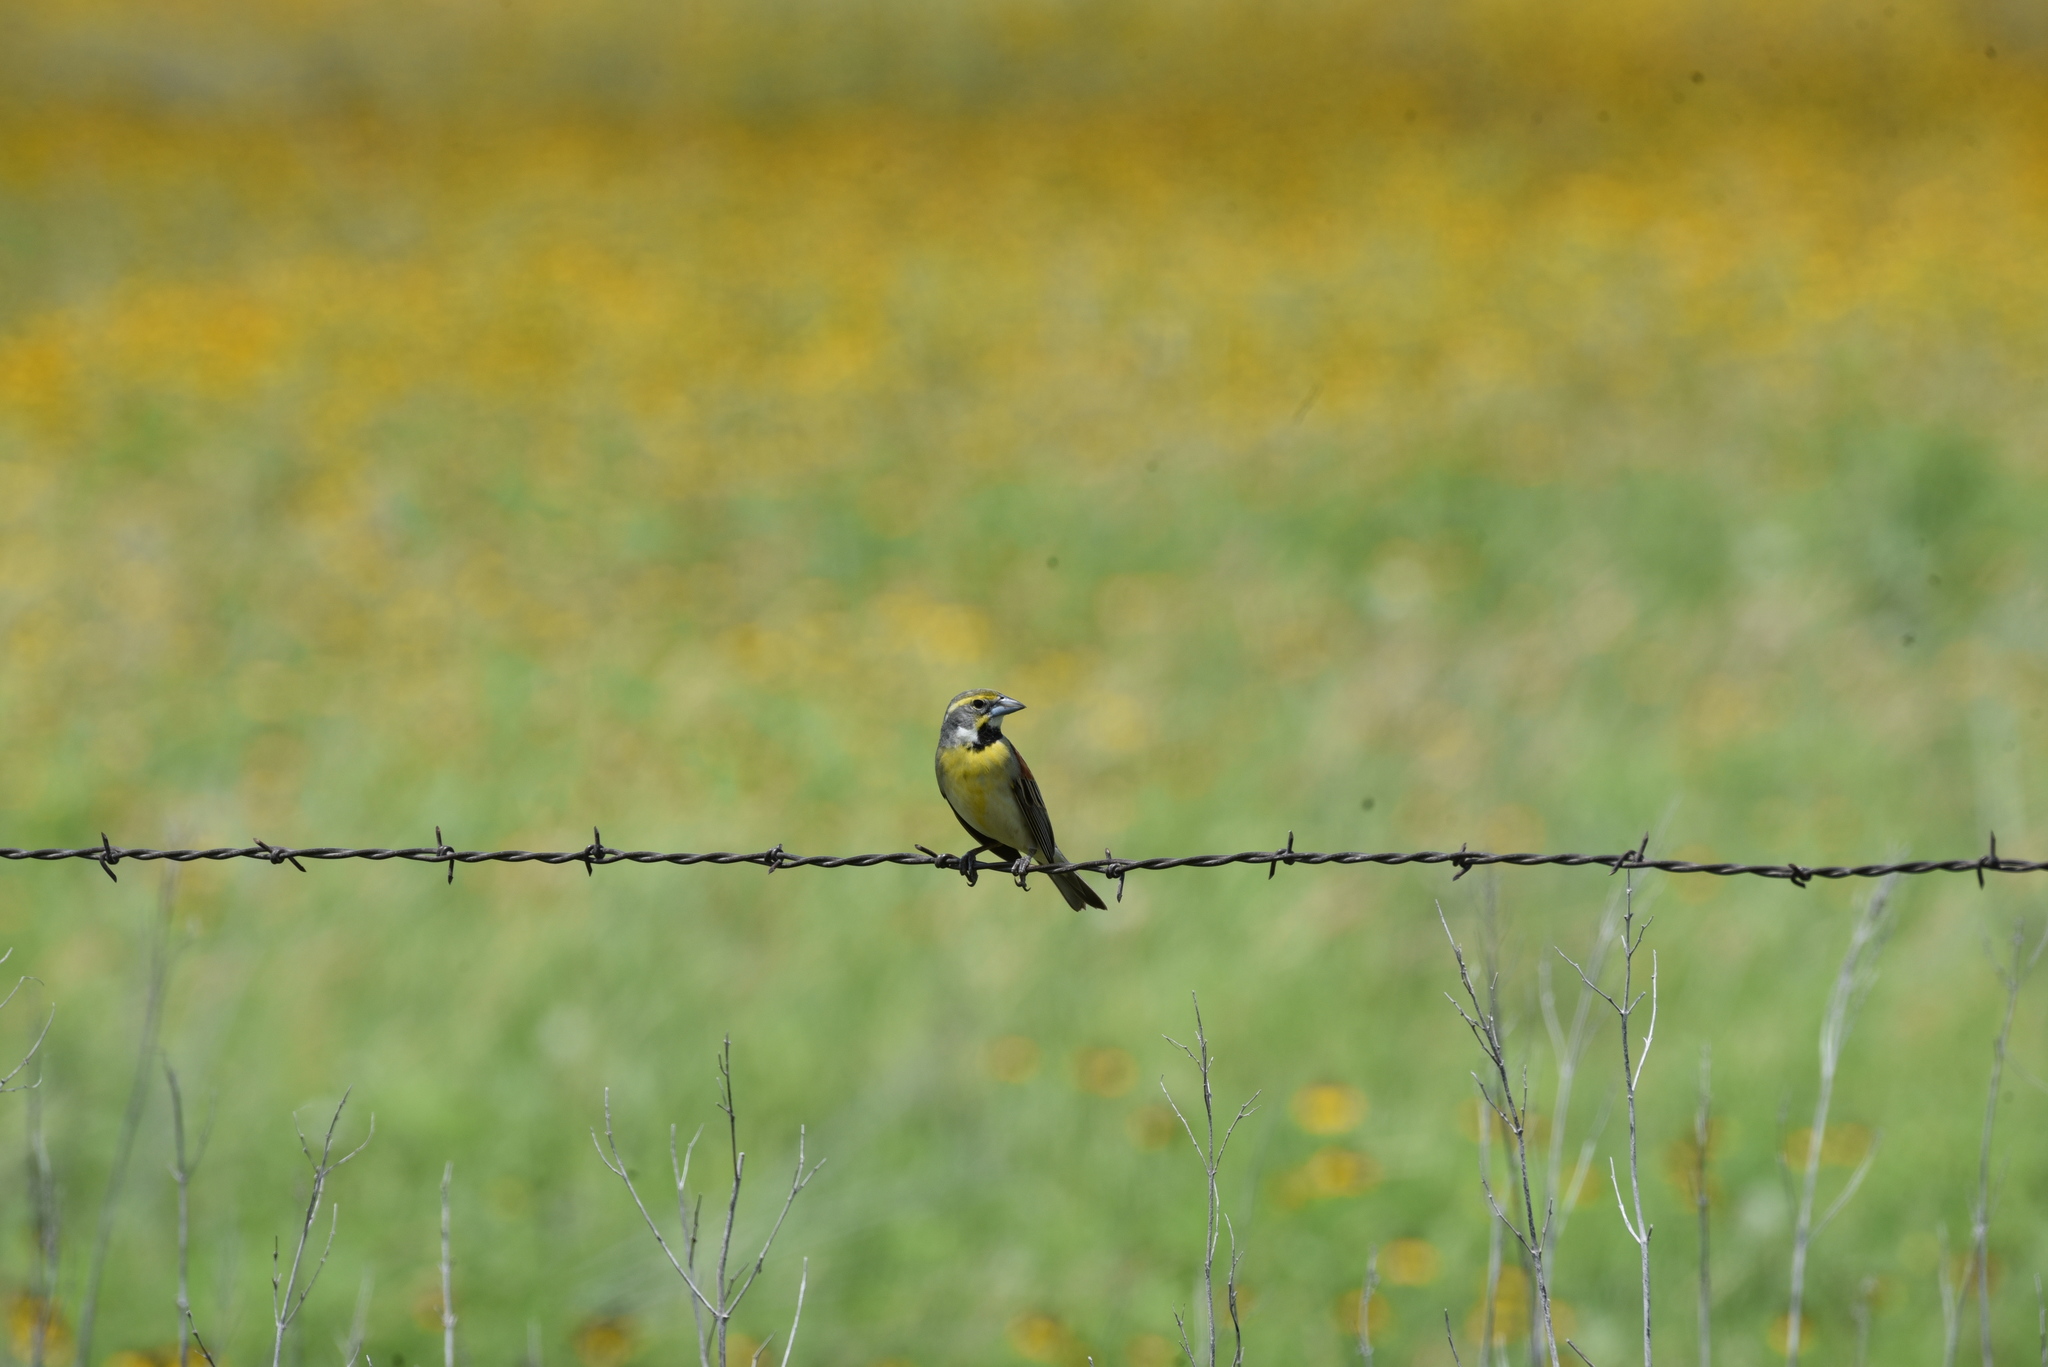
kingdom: Animalia
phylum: Chordata
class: Aves
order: Passeriformes
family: Cardinalidae
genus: Spiza
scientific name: Spiza americana
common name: Dickcissel
